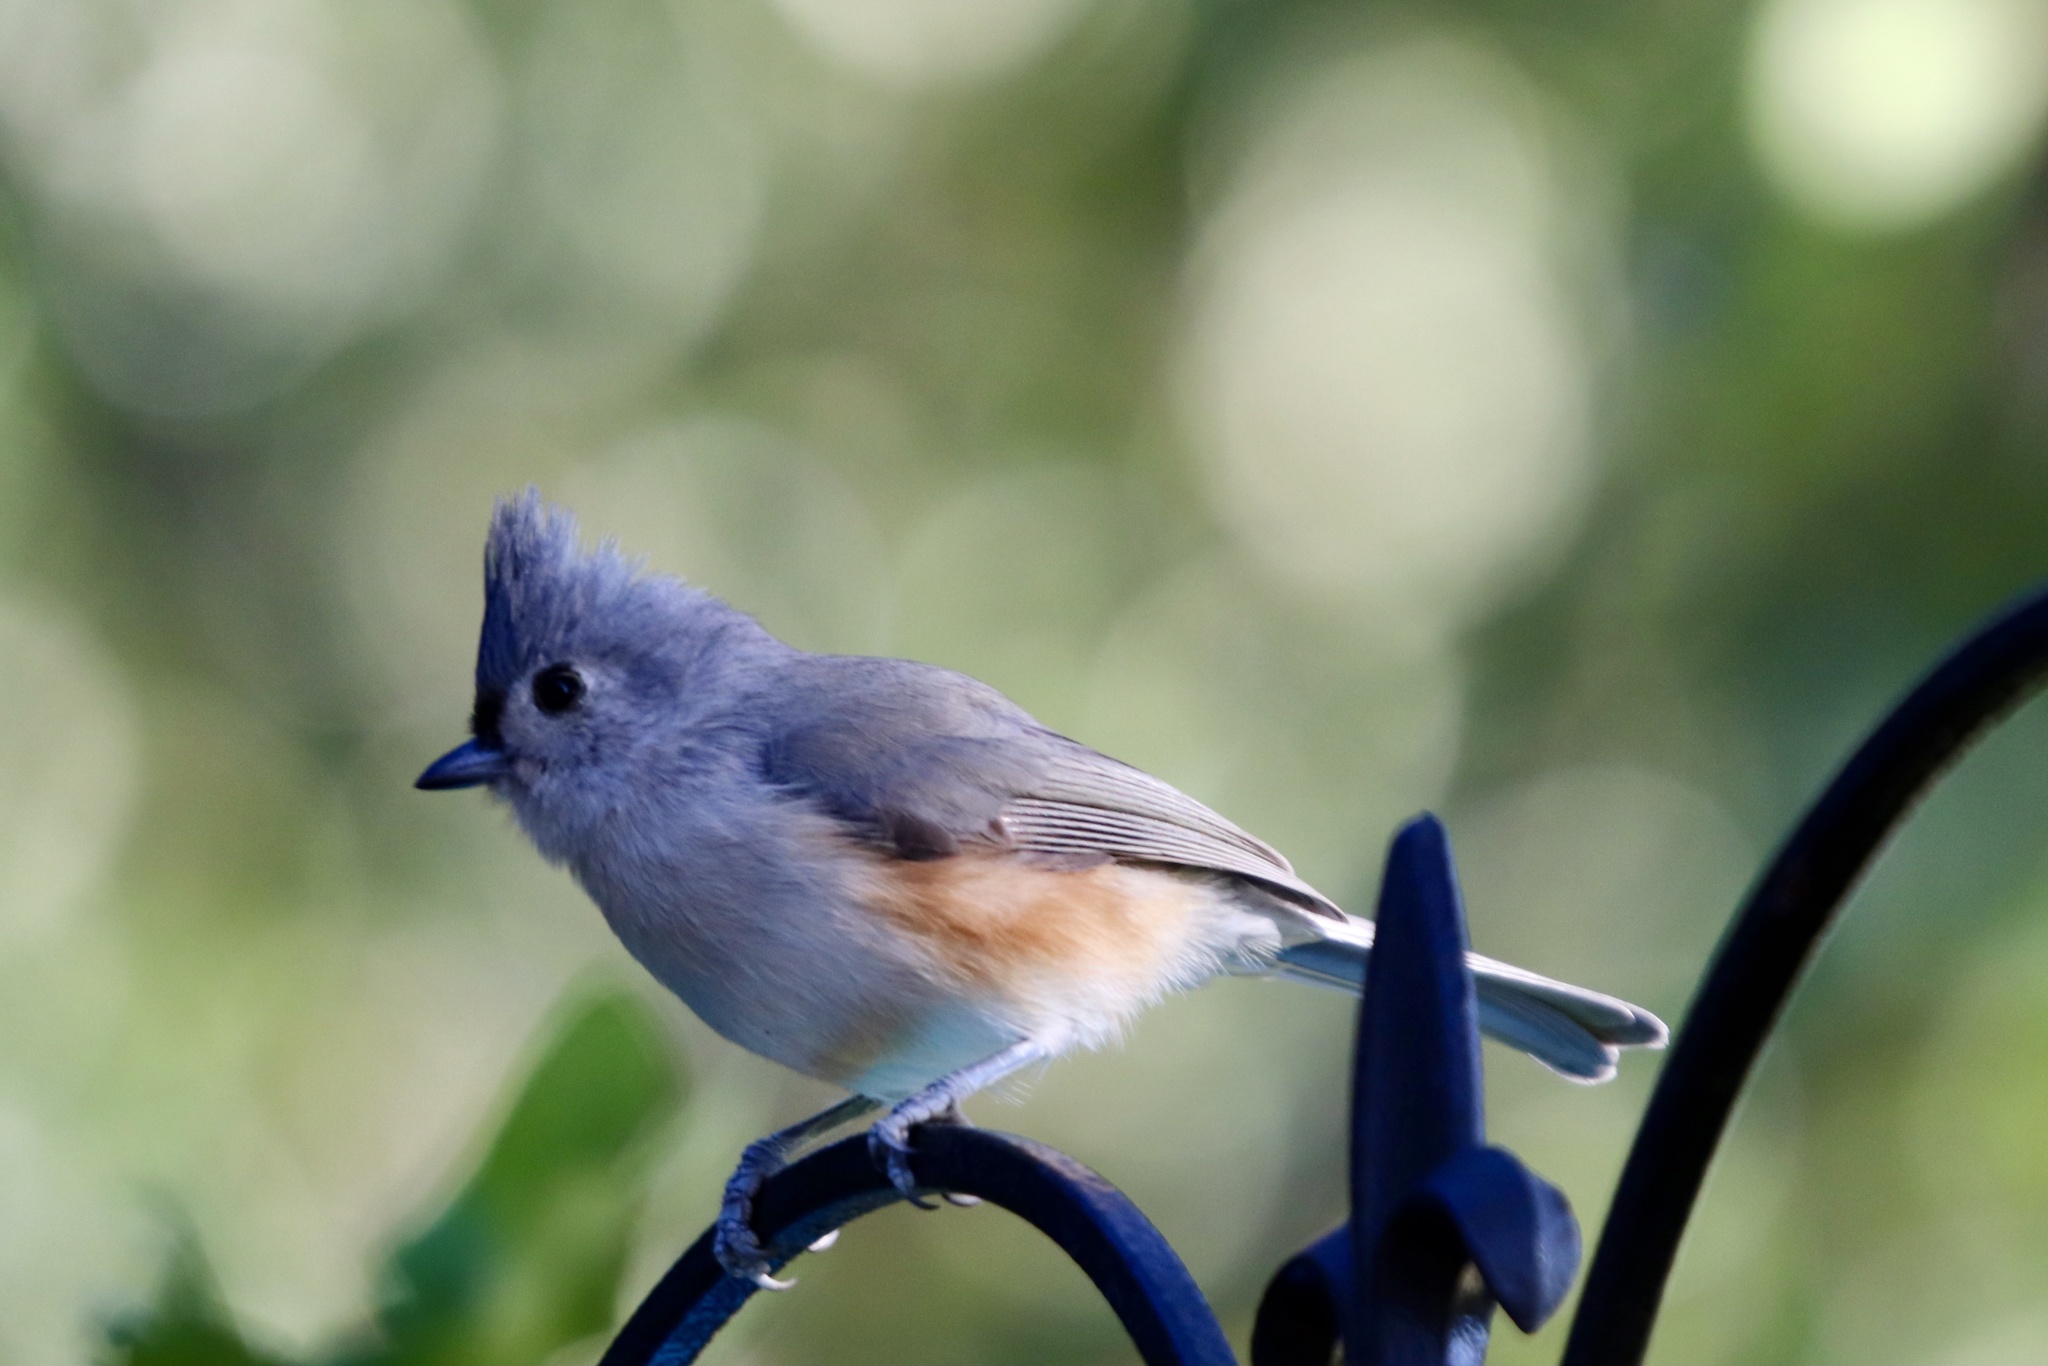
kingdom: Animalia
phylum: Chordata
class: Aves
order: Passeriformes
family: Paridae
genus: Baeolophus
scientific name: Baeolophus bicolor
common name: Tufted titmouse
